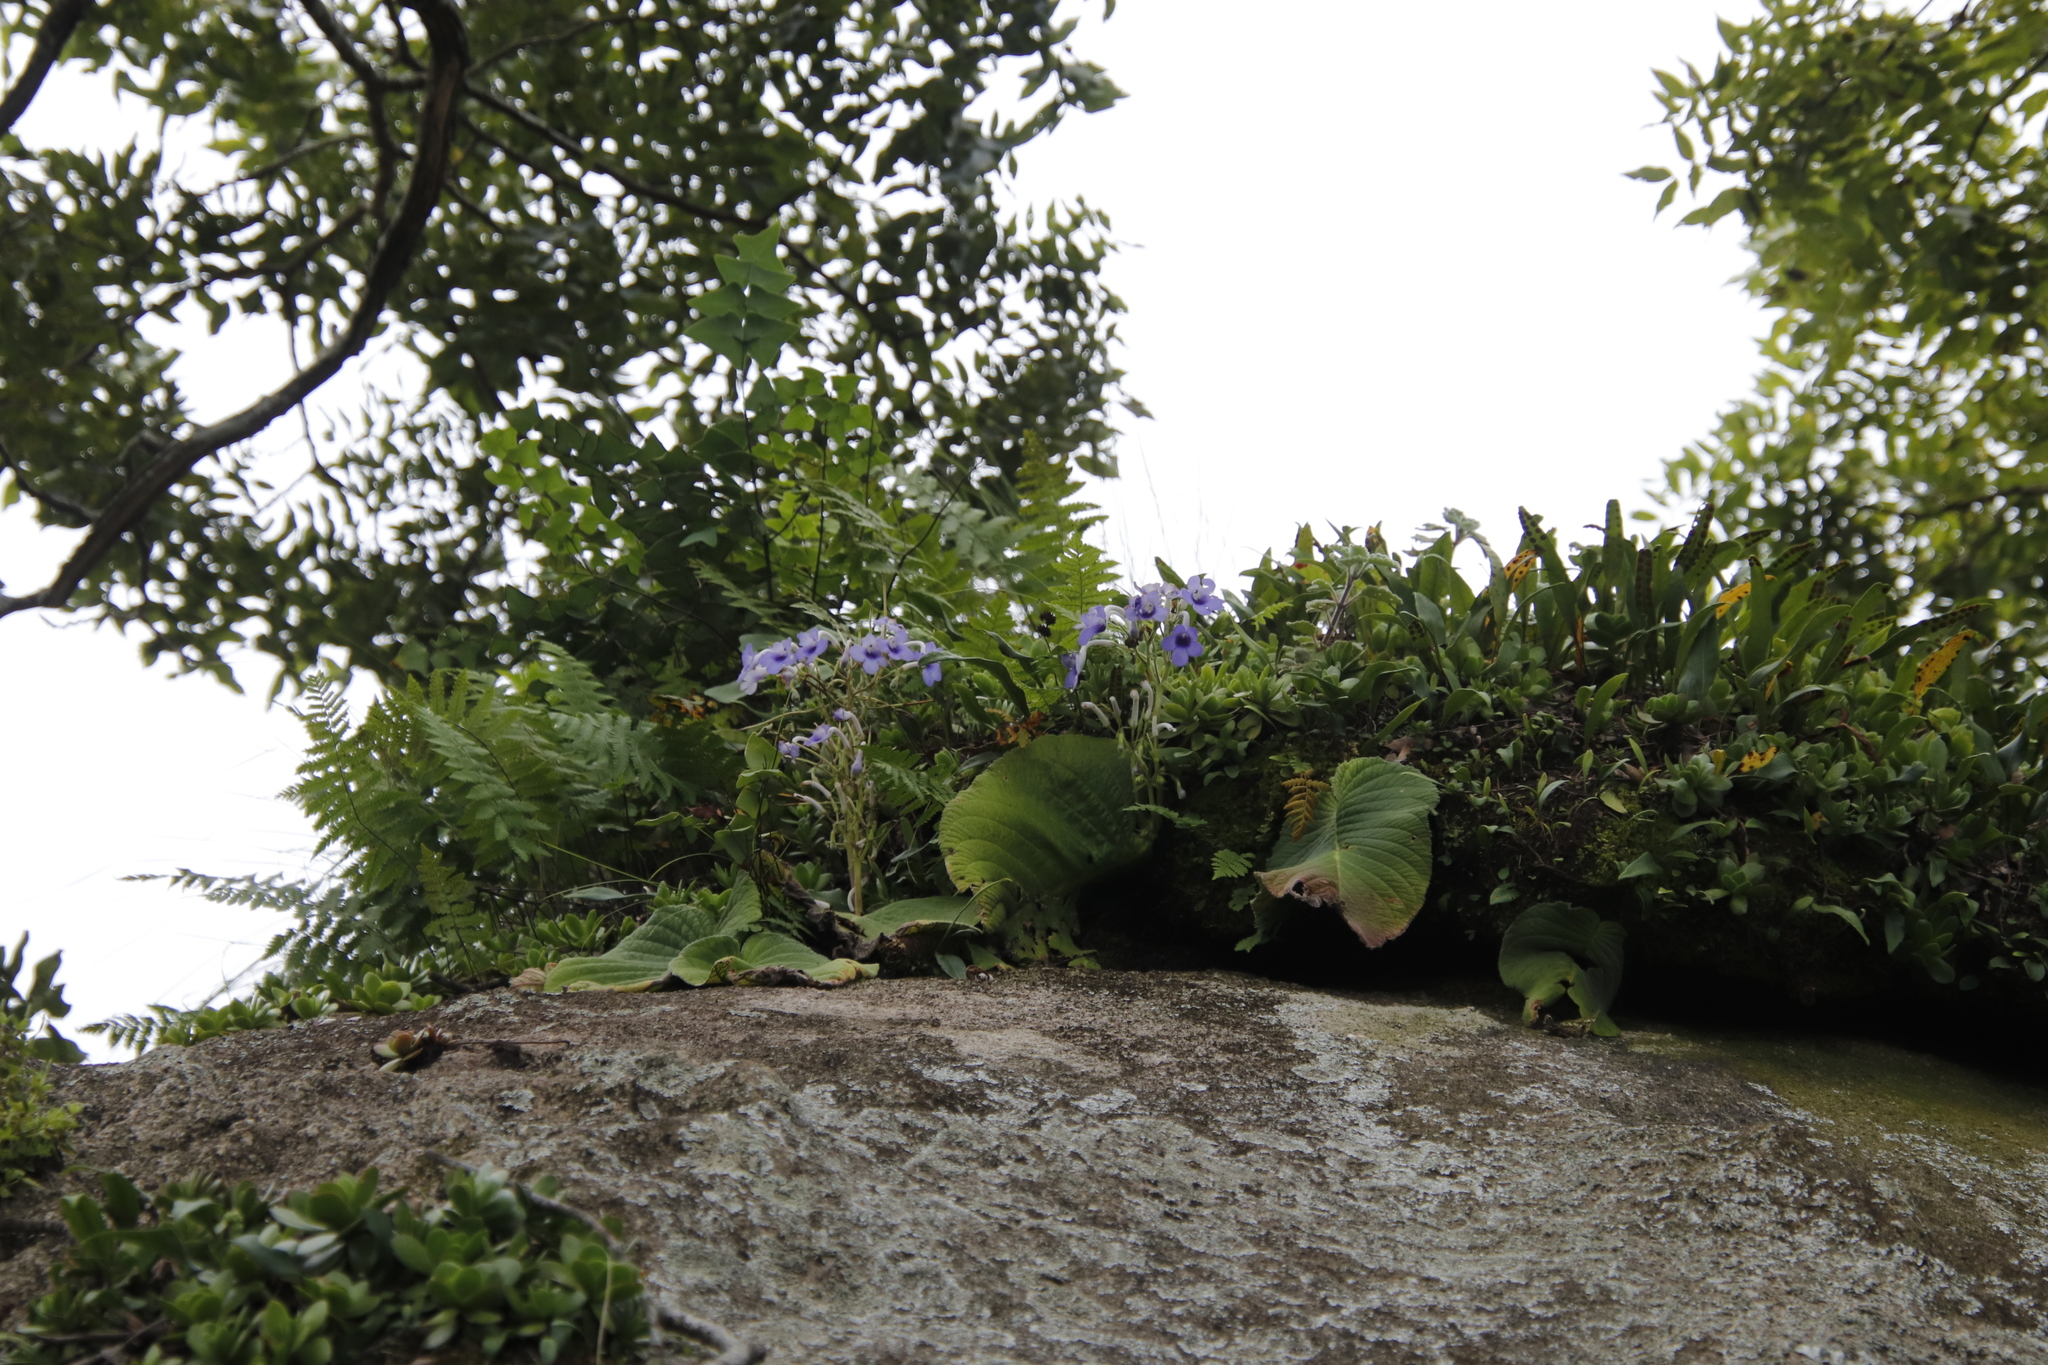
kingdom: Plantae
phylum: Tracheophyta
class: Magnoliopsida
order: Lamiales
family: Gesneriaceae
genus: Streptocarpus
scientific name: Streptocarpus eylesii
